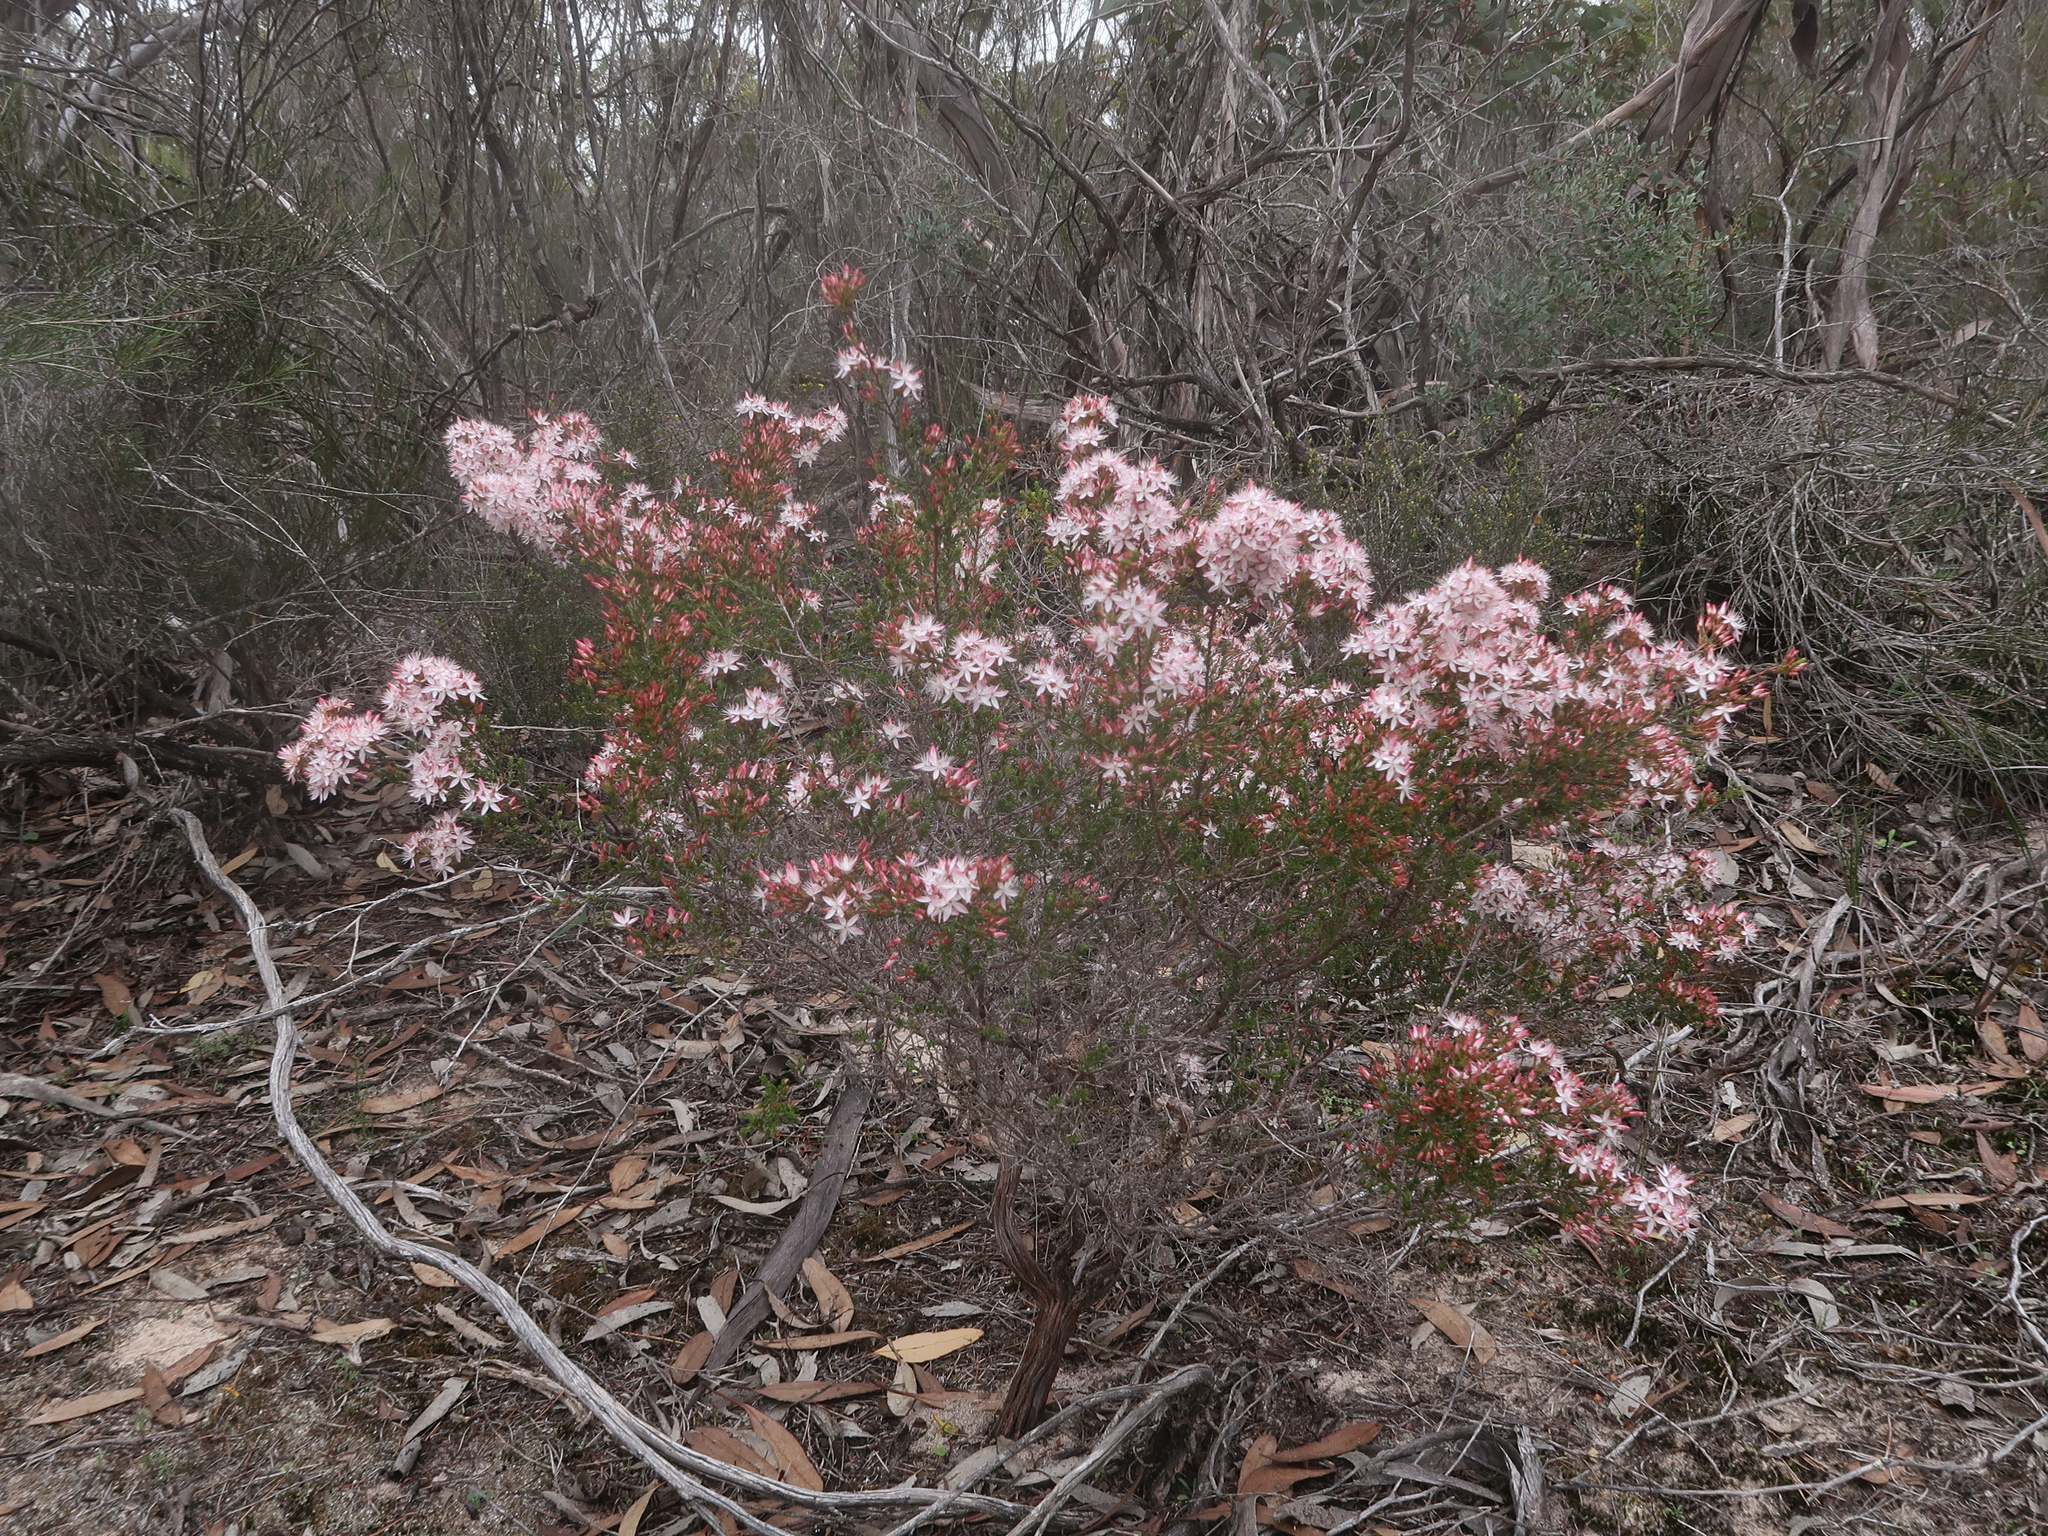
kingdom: Plantae
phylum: Tracheophyta
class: Magnoliopsida
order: Myrtales
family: Myrtaceae
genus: Calytrix
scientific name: Calytrix tetragona
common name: Common fringe myrtle
